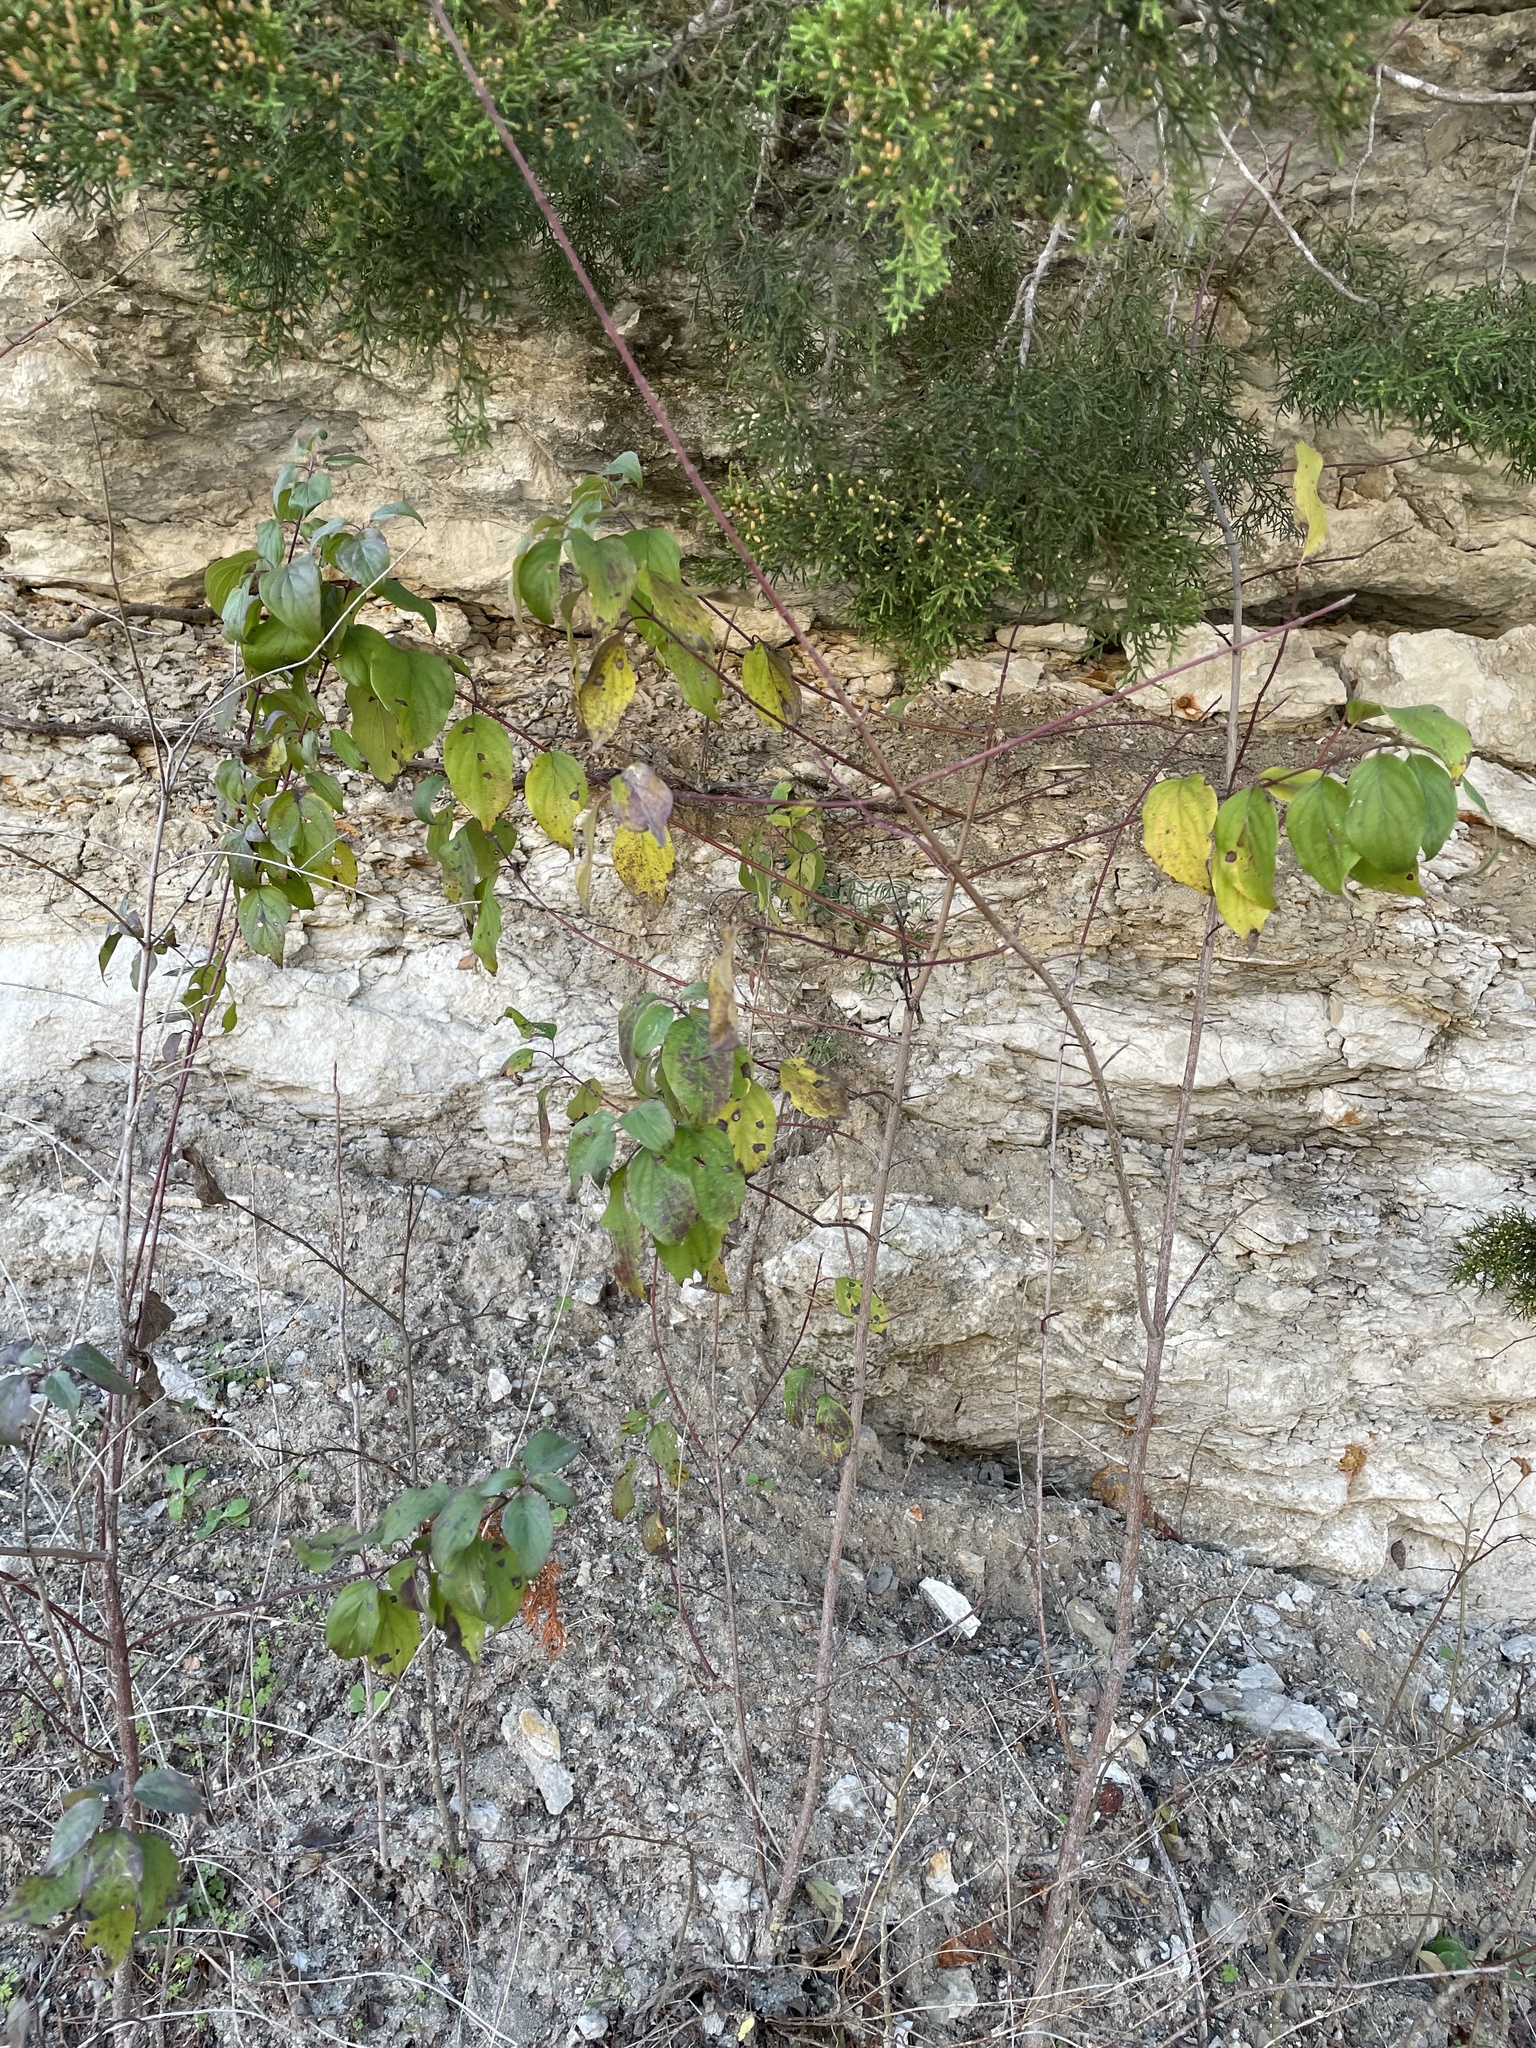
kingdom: Plantae
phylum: Tracheophyta
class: Magnoliopsida
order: Cornales
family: Cornaceae
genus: Cornus
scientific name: Cornus drummondii
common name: Rough-leaf dogwood
